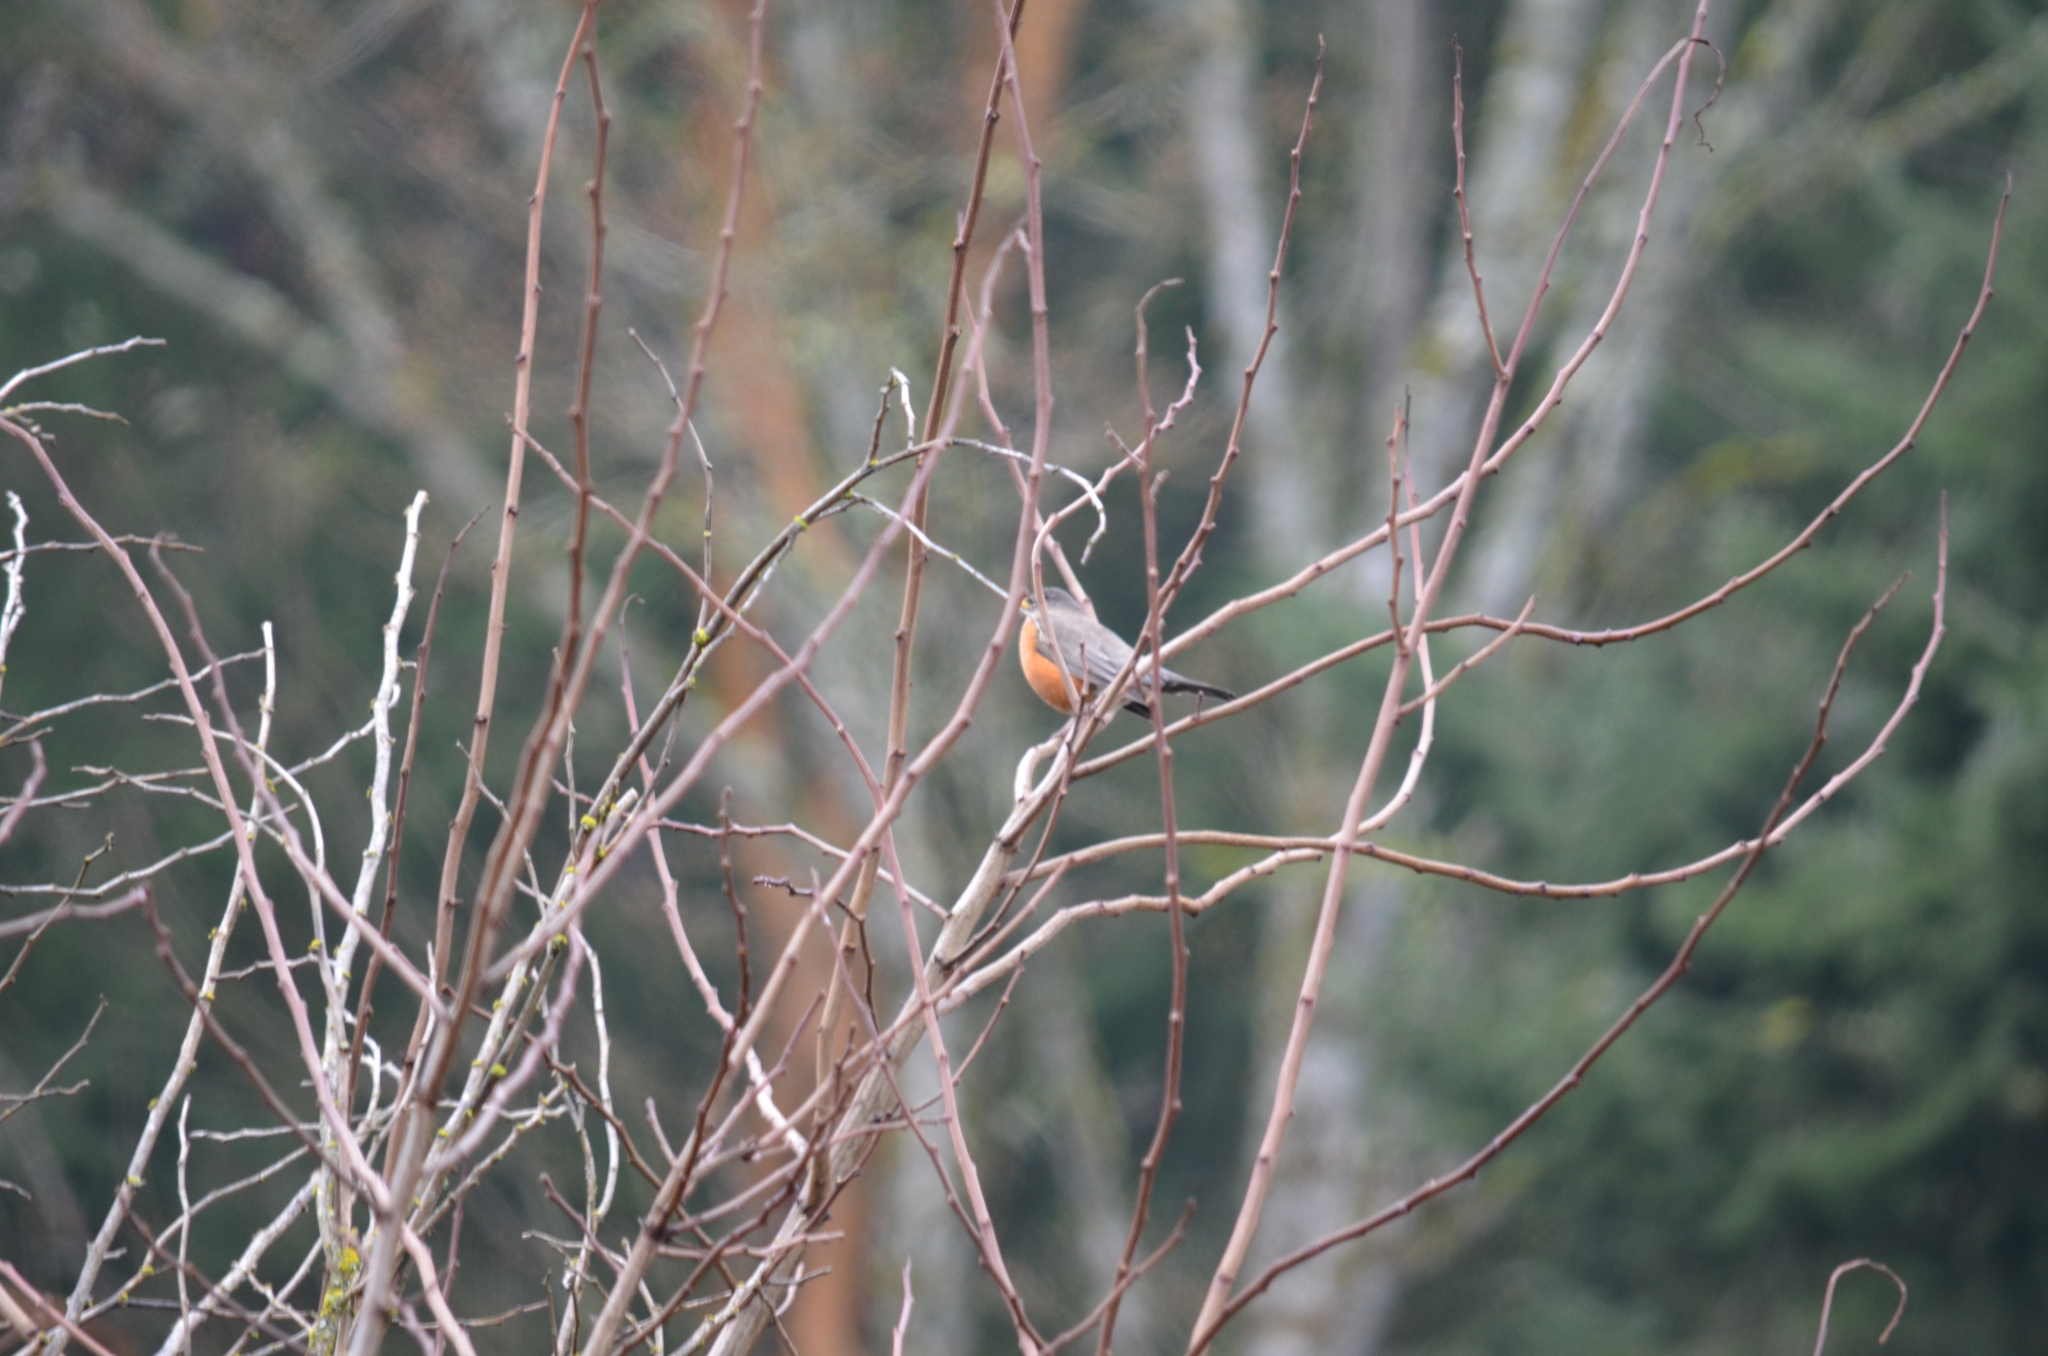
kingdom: Animalia
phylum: Chordata
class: Aves
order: Passeriformes
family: Turdidae
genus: Turdus
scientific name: Turdus migratorius
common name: American robin
